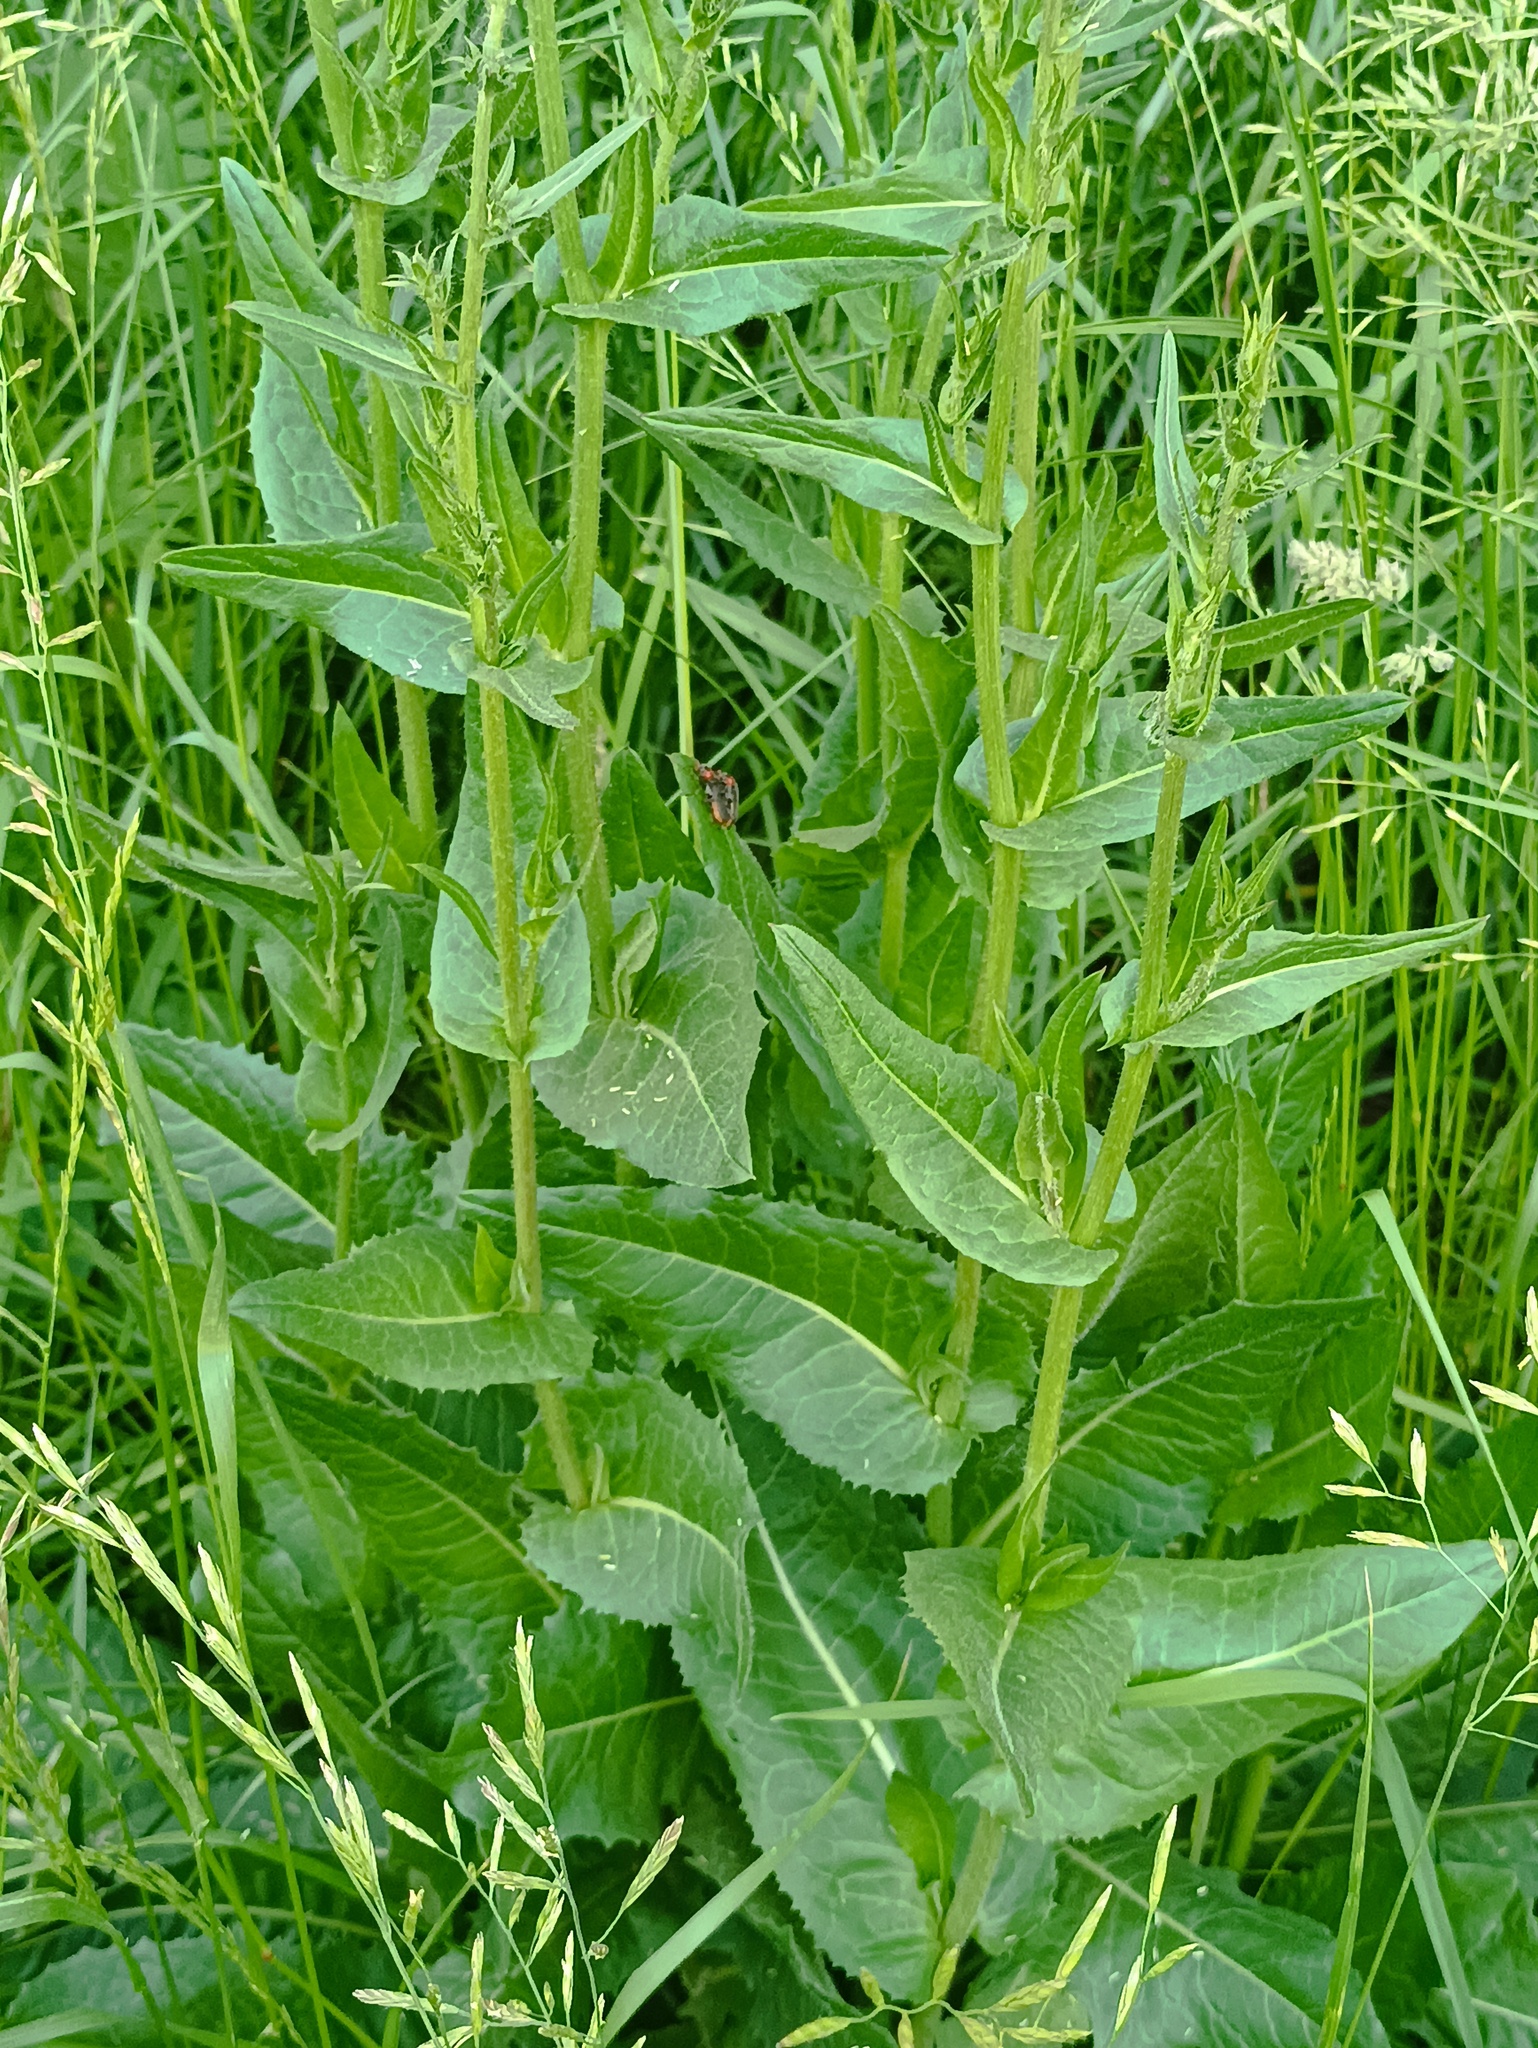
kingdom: Plantae
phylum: Tracheophyta
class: Magnoliopsida
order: Asterales
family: Asteraceae
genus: Cichorium
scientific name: Cichorium intybus
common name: Chicory
